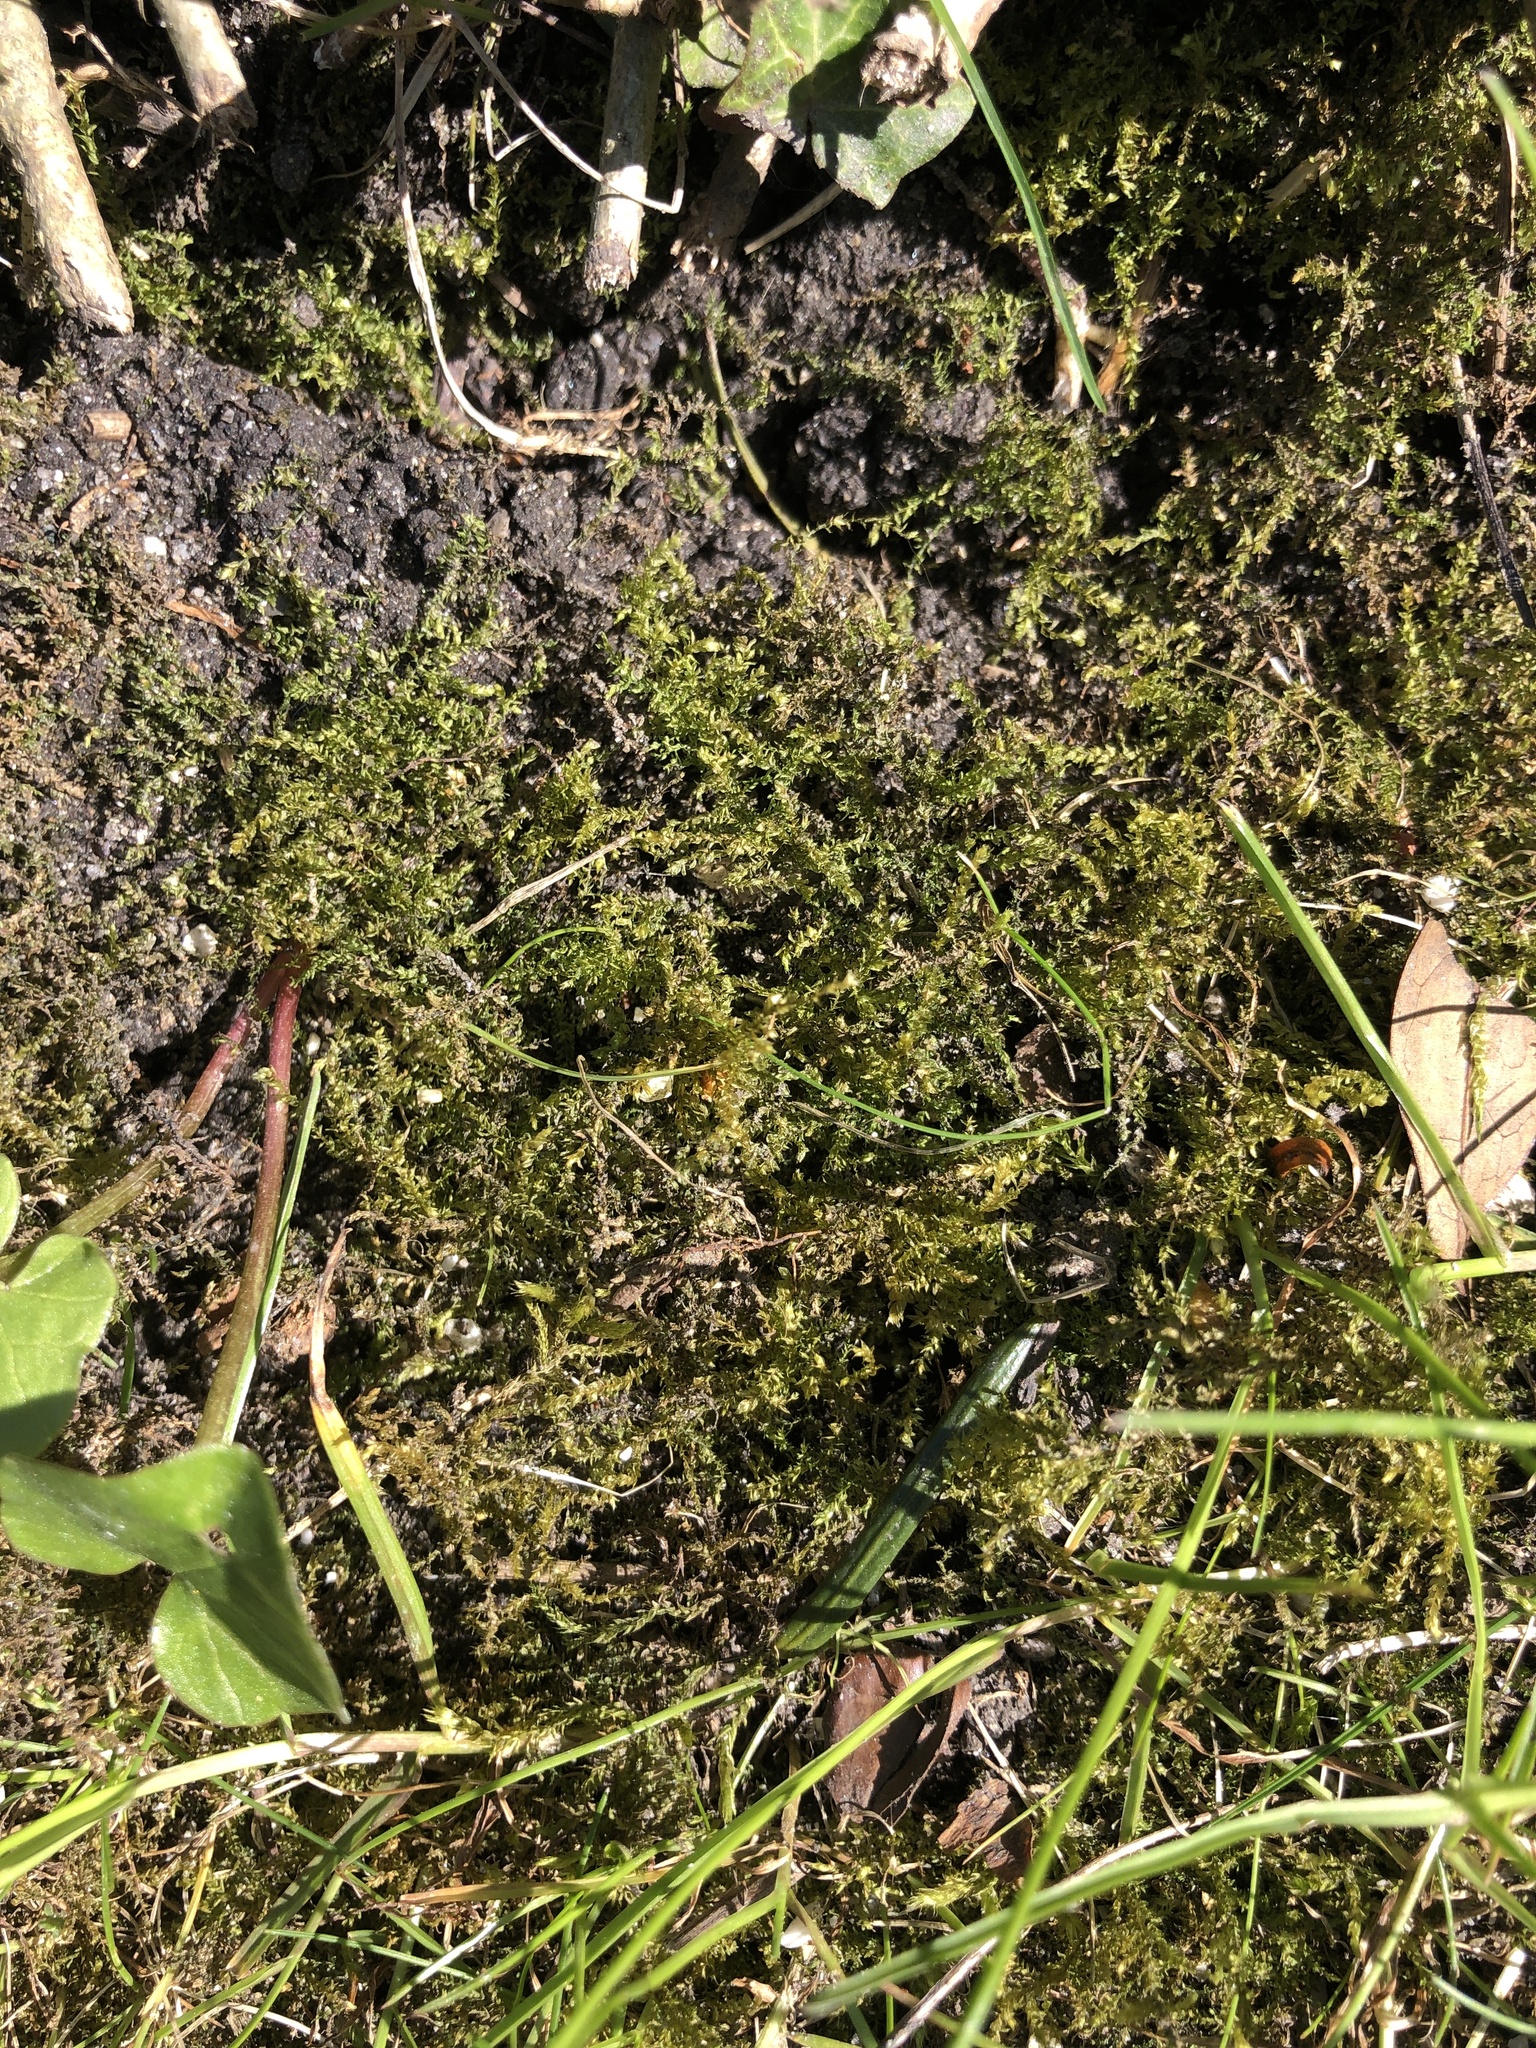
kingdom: Plantae
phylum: Bryophyta
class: Bryopsida
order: Hypnales
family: Brachytheciaceae
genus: Oxyrrhynchium
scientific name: Oxyrrhynchium hians
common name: Spreading beaked moss
